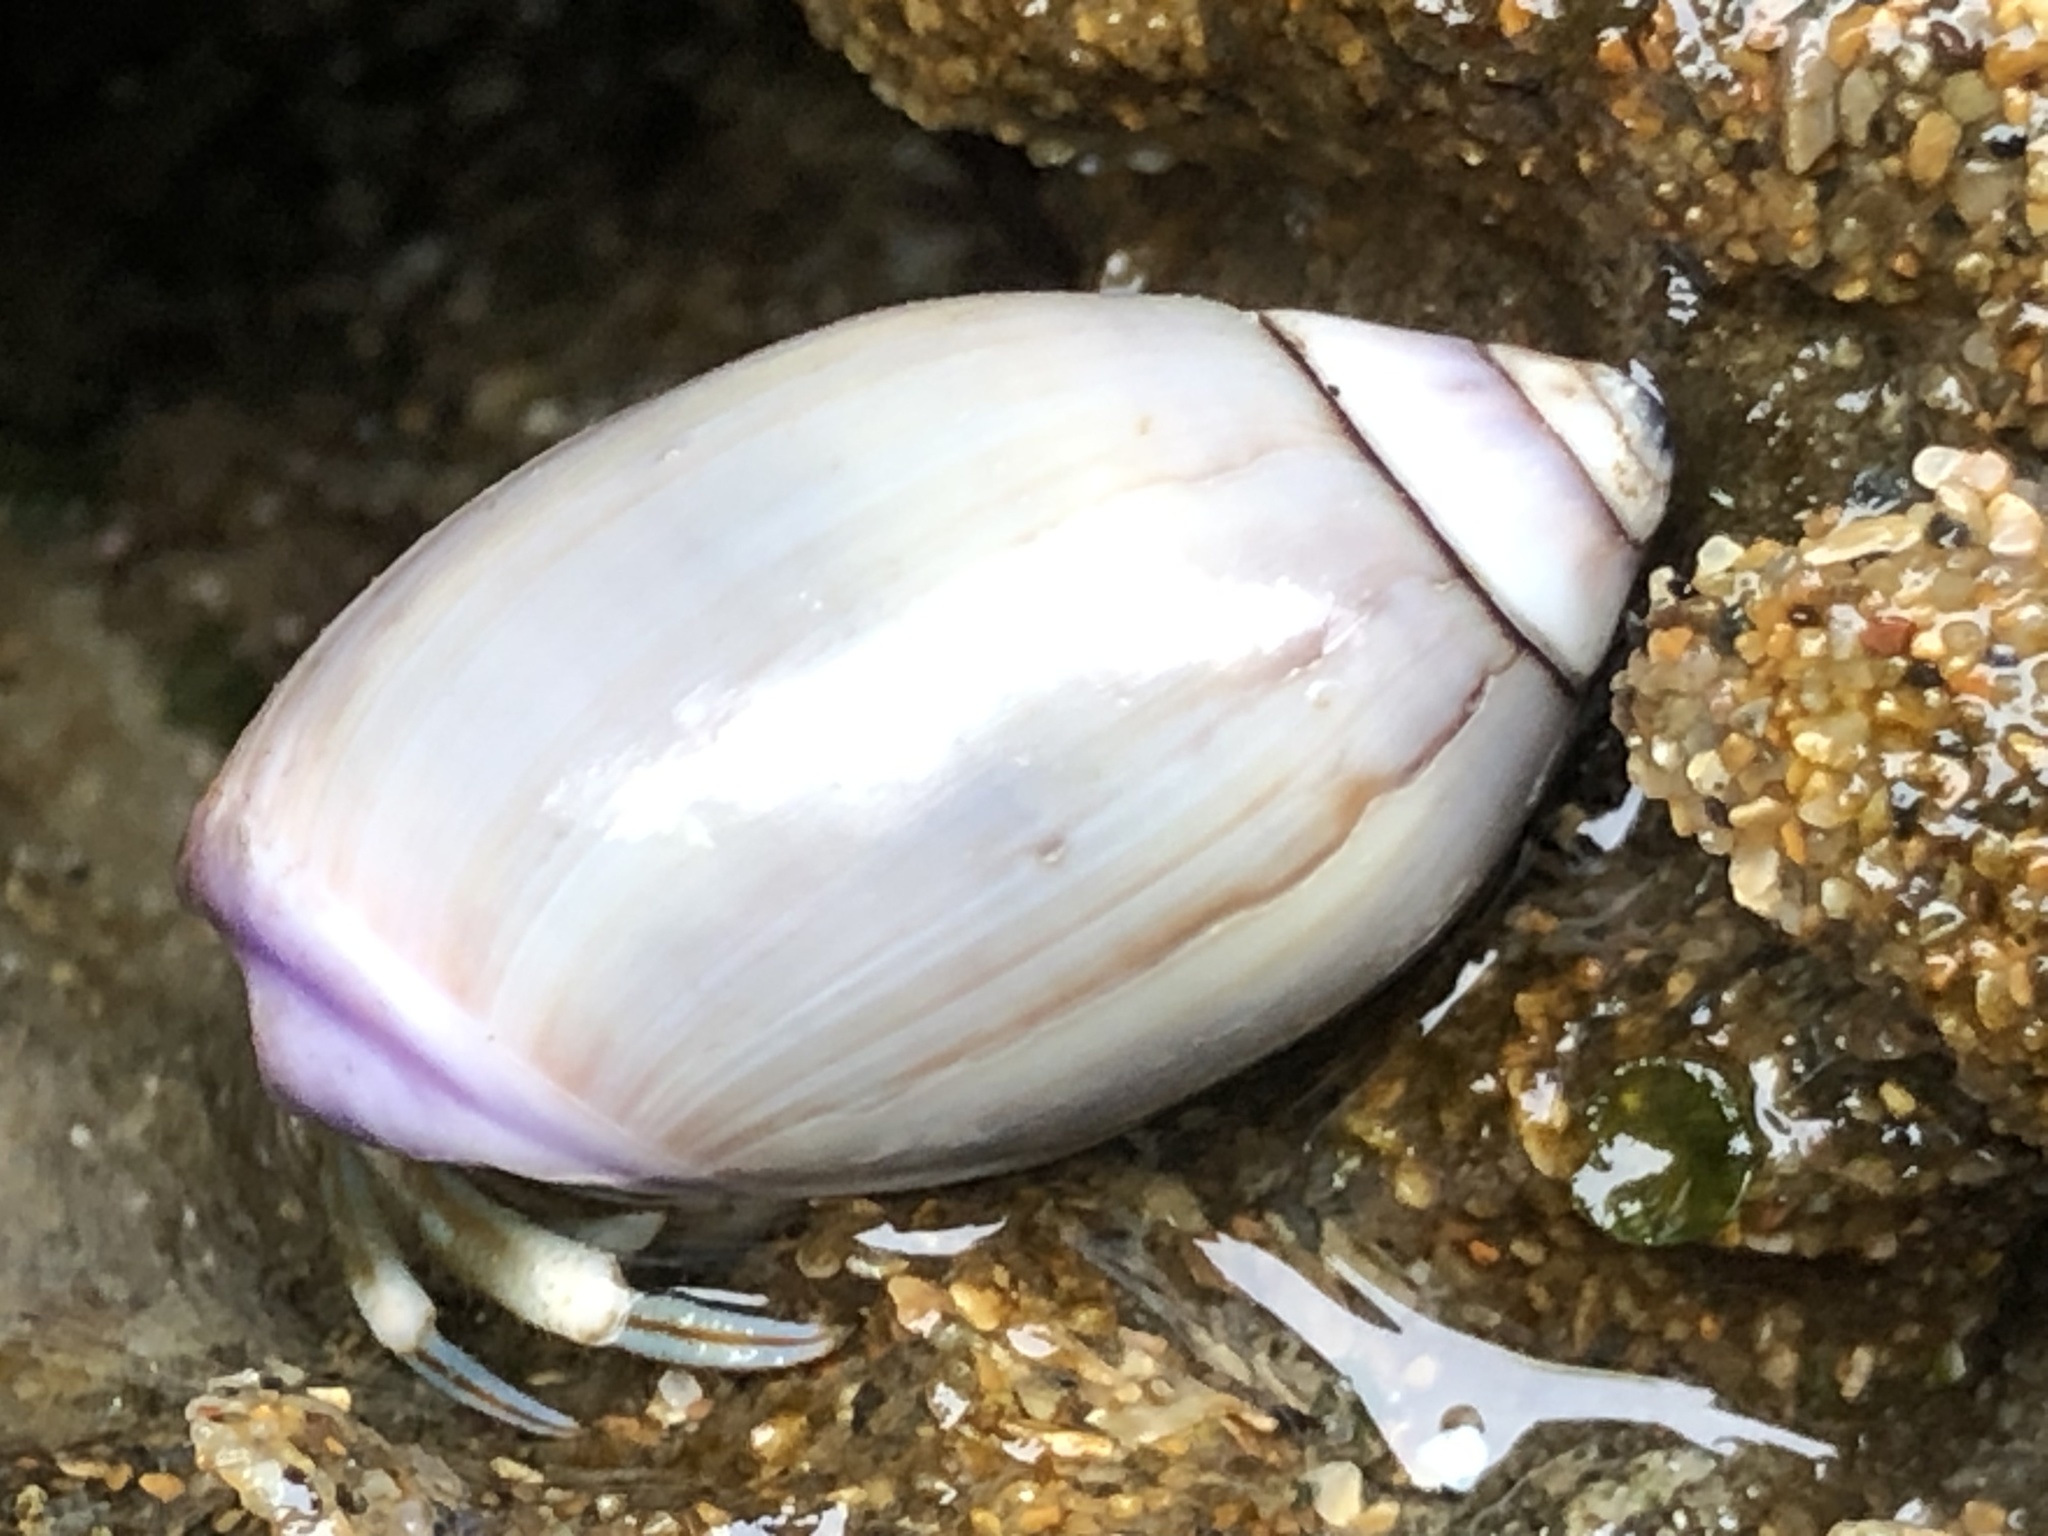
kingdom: Animalia
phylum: Mollusca
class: Gastropoda
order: Neogastropoda
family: Olividae
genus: Callianax
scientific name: Callianax biplicata
